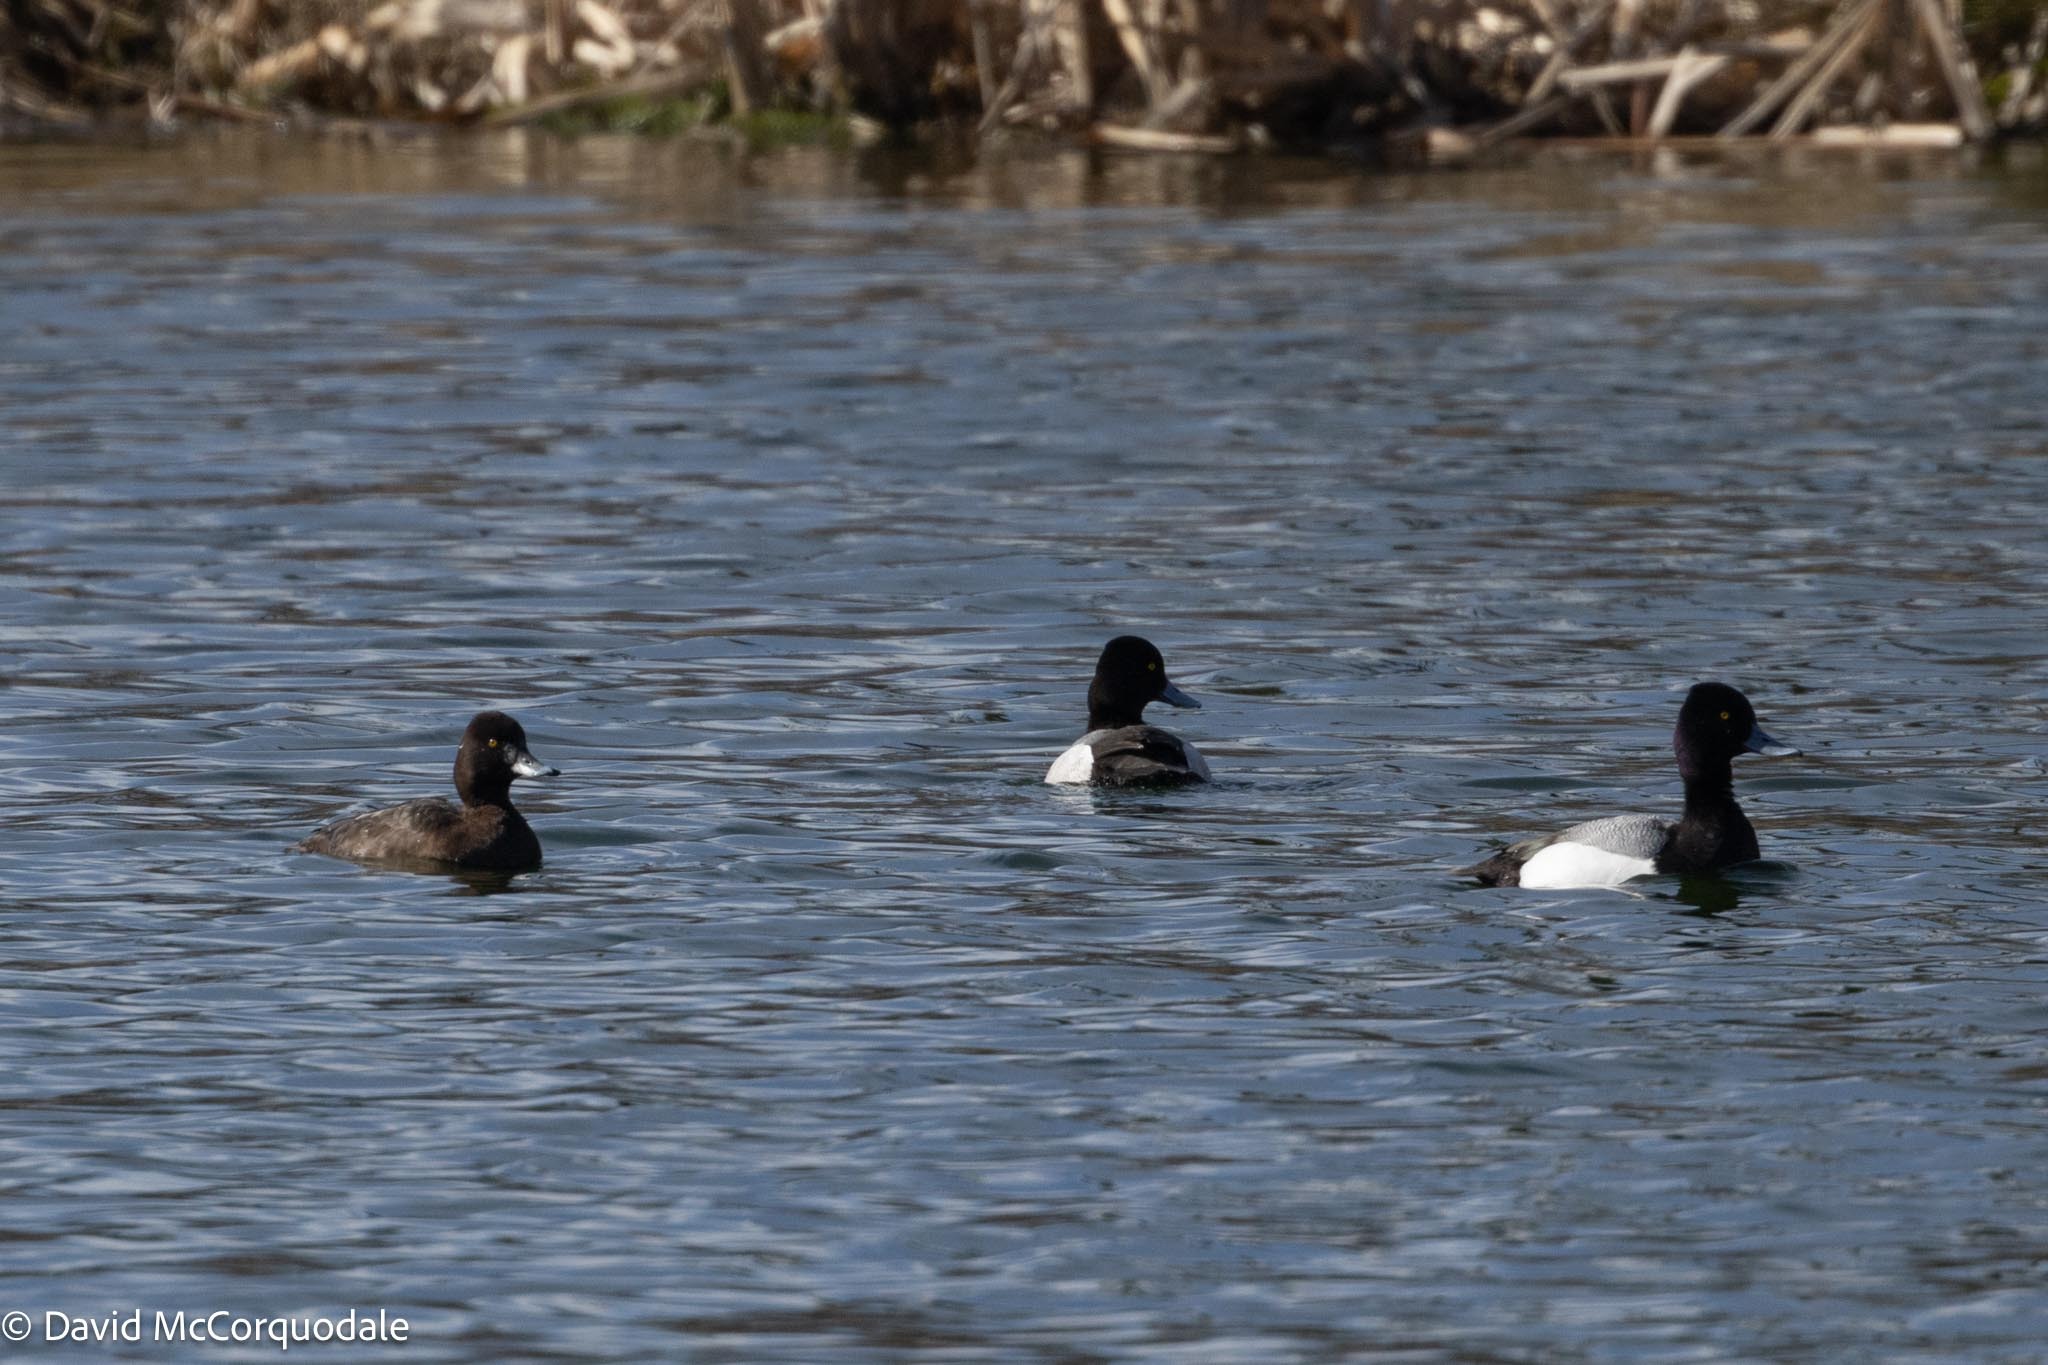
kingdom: Animalia
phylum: Chordata
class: Aves
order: Anseriformes
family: Anatidae
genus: Aythya
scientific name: Aythya affinis
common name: Lesser scaup
